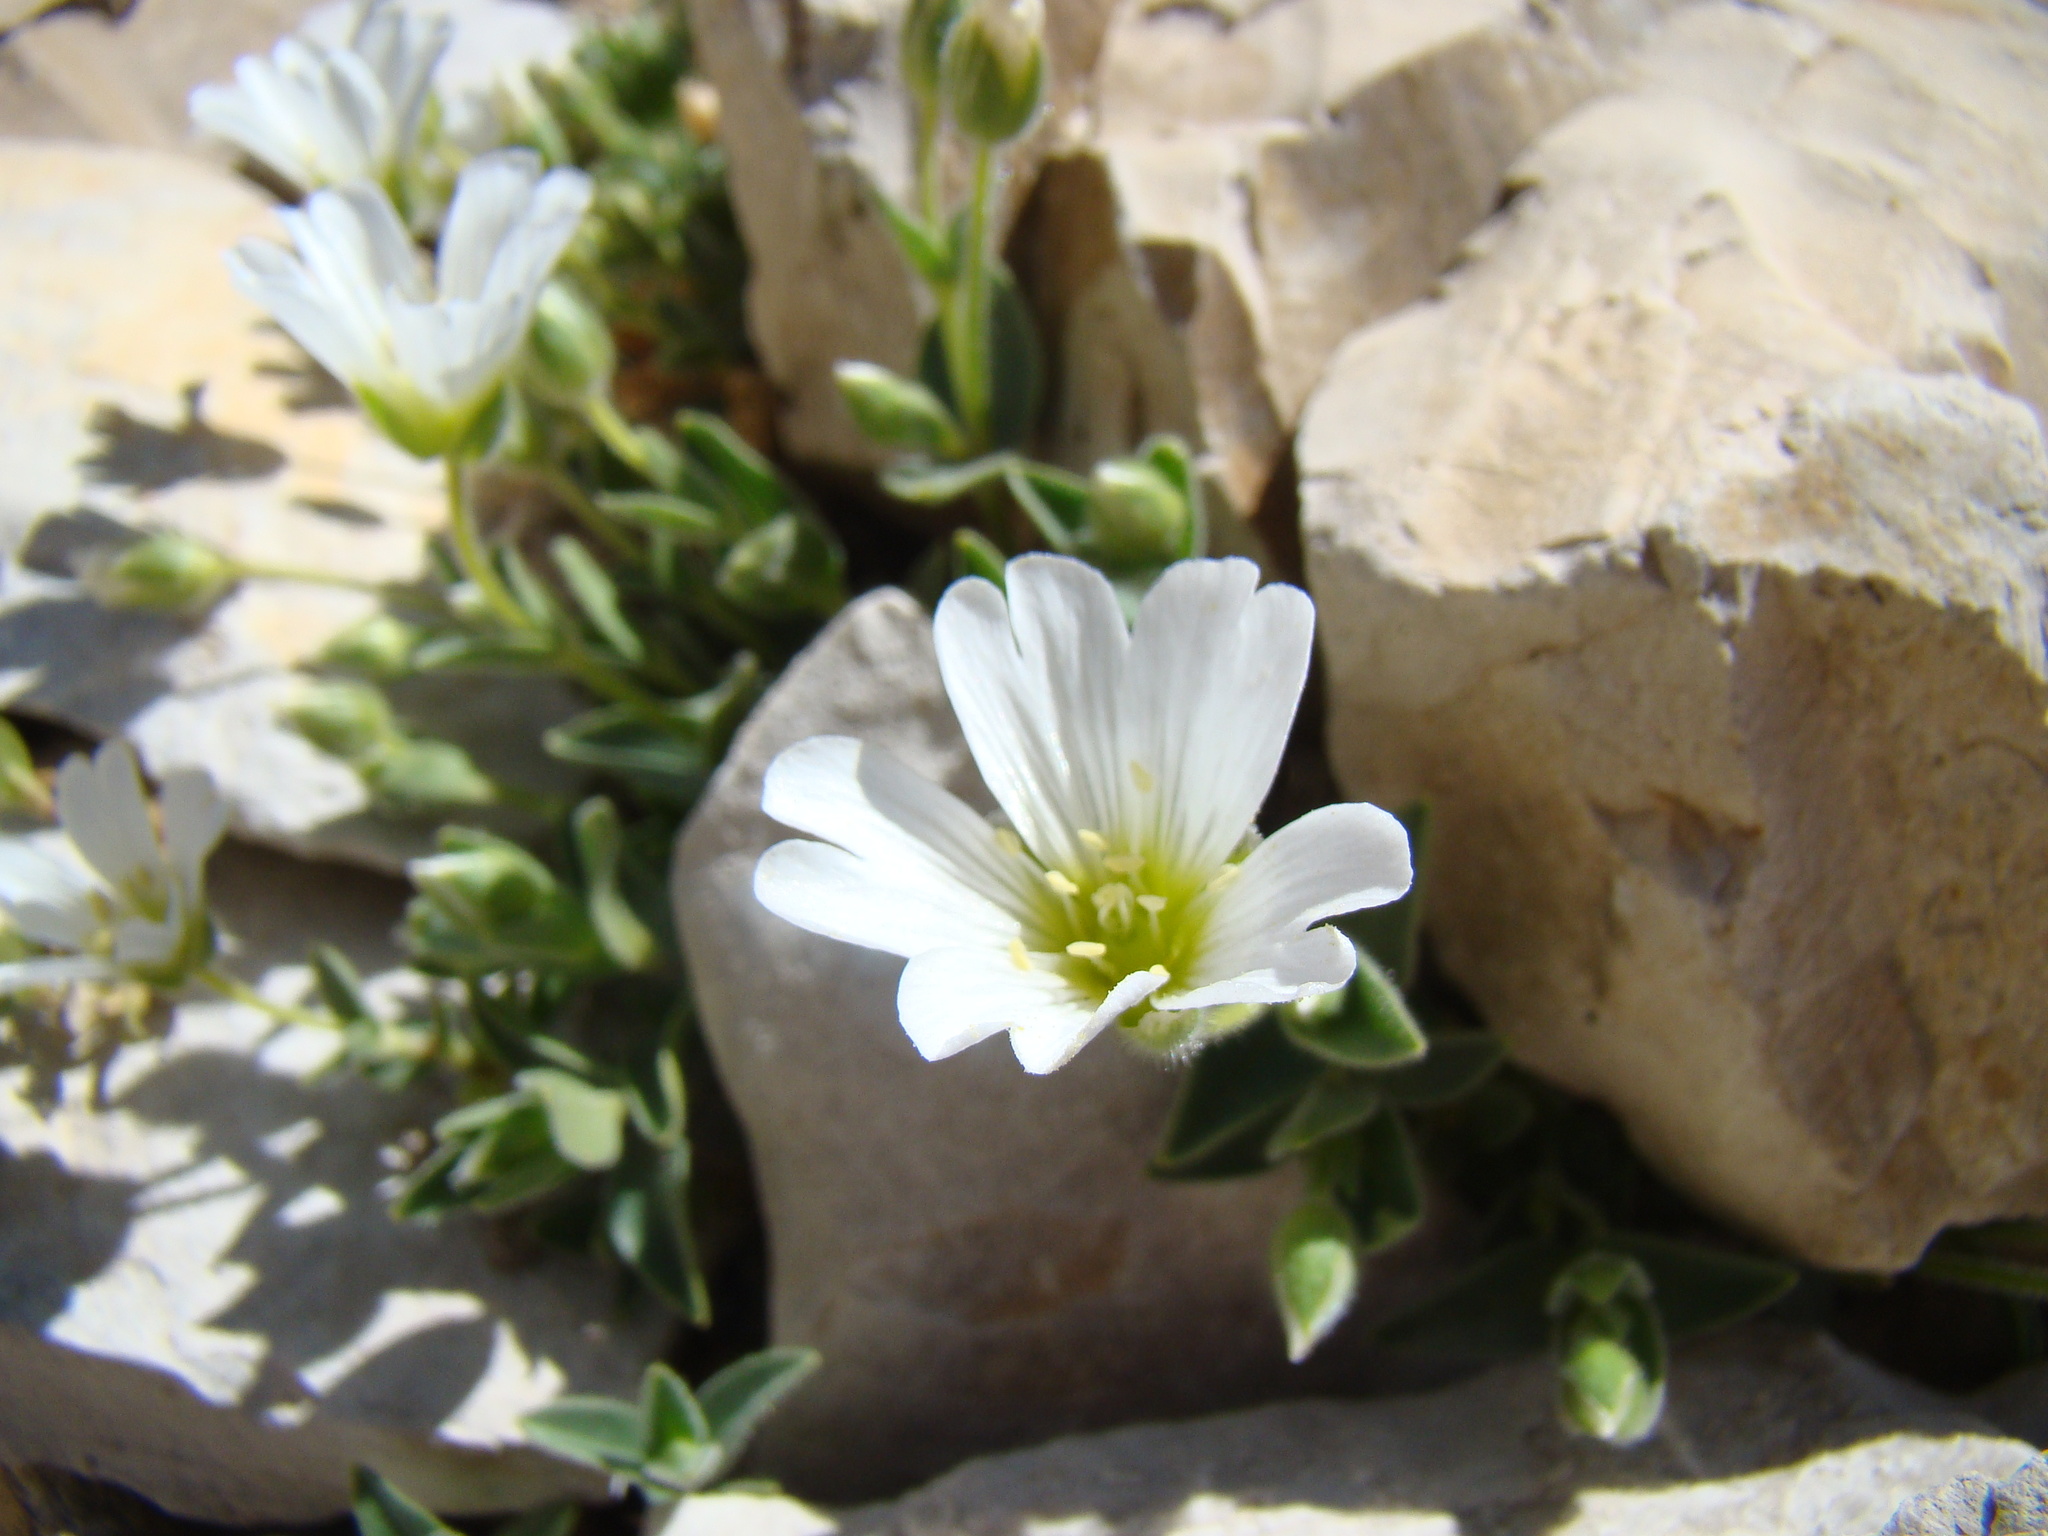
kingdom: Plantae
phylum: Tracheophyta
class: Magnoliopsida
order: Caryophyllales
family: Caryophyllaceae
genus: Cerastium
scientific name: Cerastium latifolium
